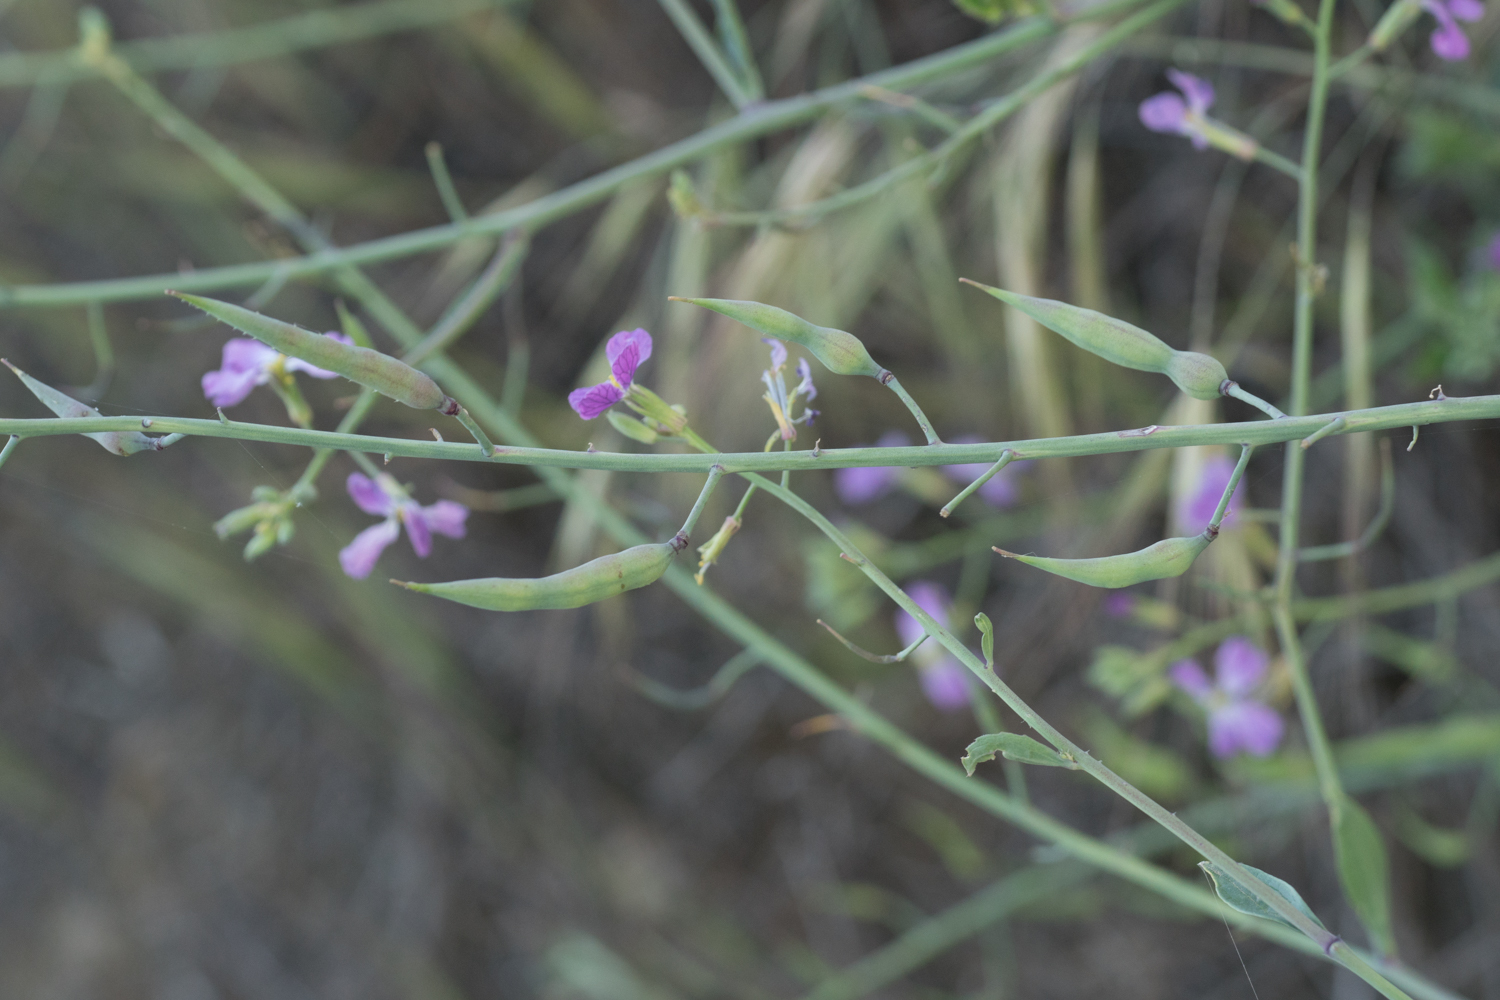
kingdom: Plantae
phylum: Tracheophyta
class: Magnoliopsida
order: Brassicales
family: Brassicaceae
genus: Raphanus
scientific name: Raphanus sativus
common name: Cultivated radish
